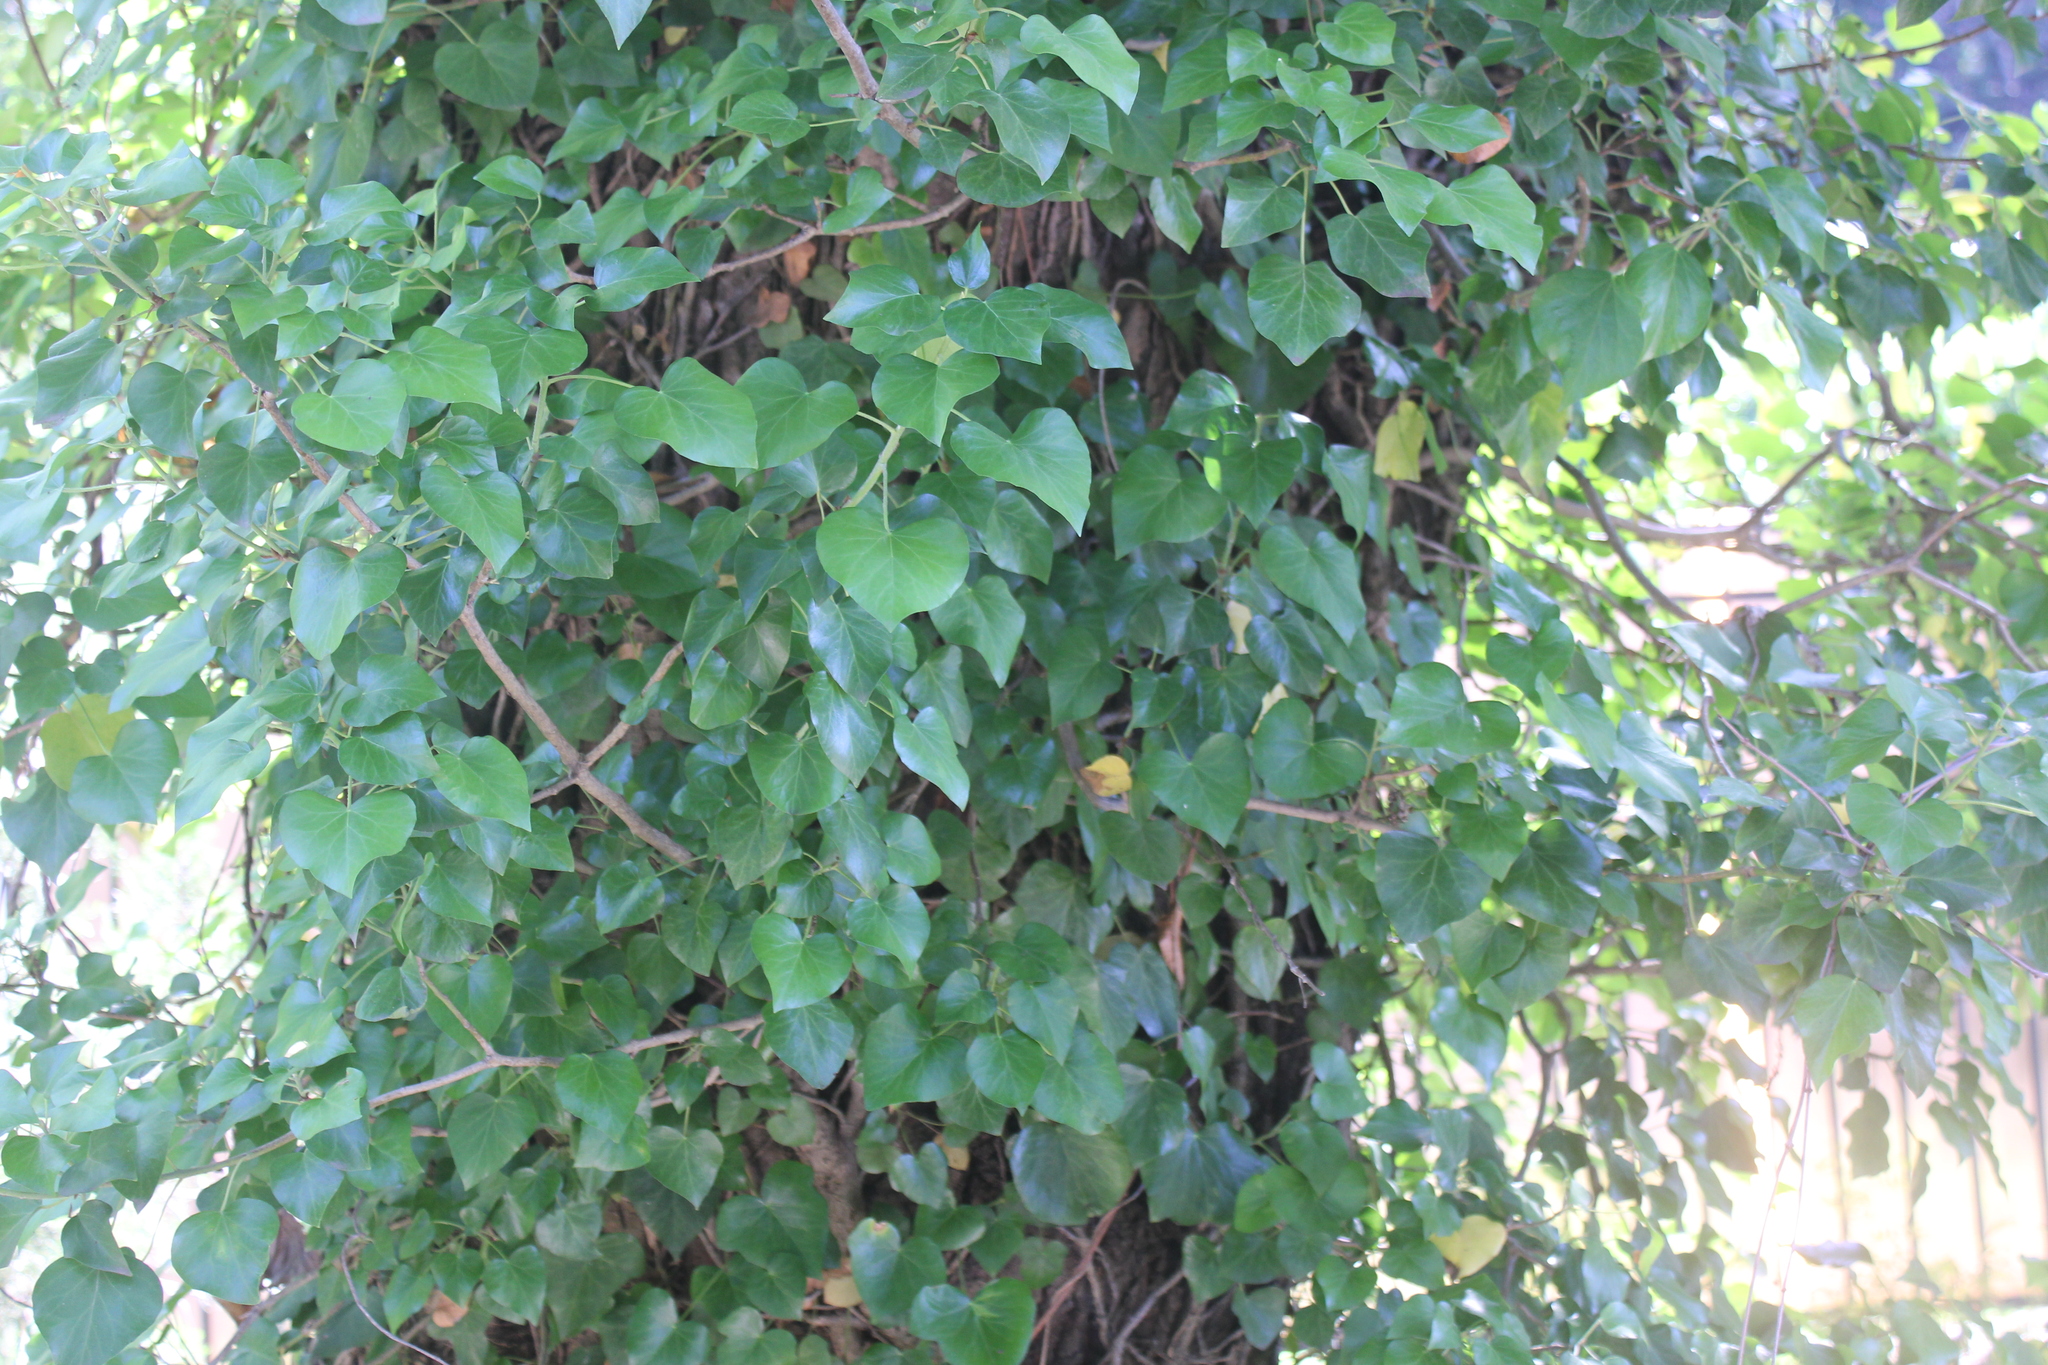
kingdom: Plantae
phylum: Tracheophyta
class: Magnoliopsida
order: Apiales
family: Araliaceae
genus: Hedera
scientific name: Hedera colchica
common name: Persian ivy
